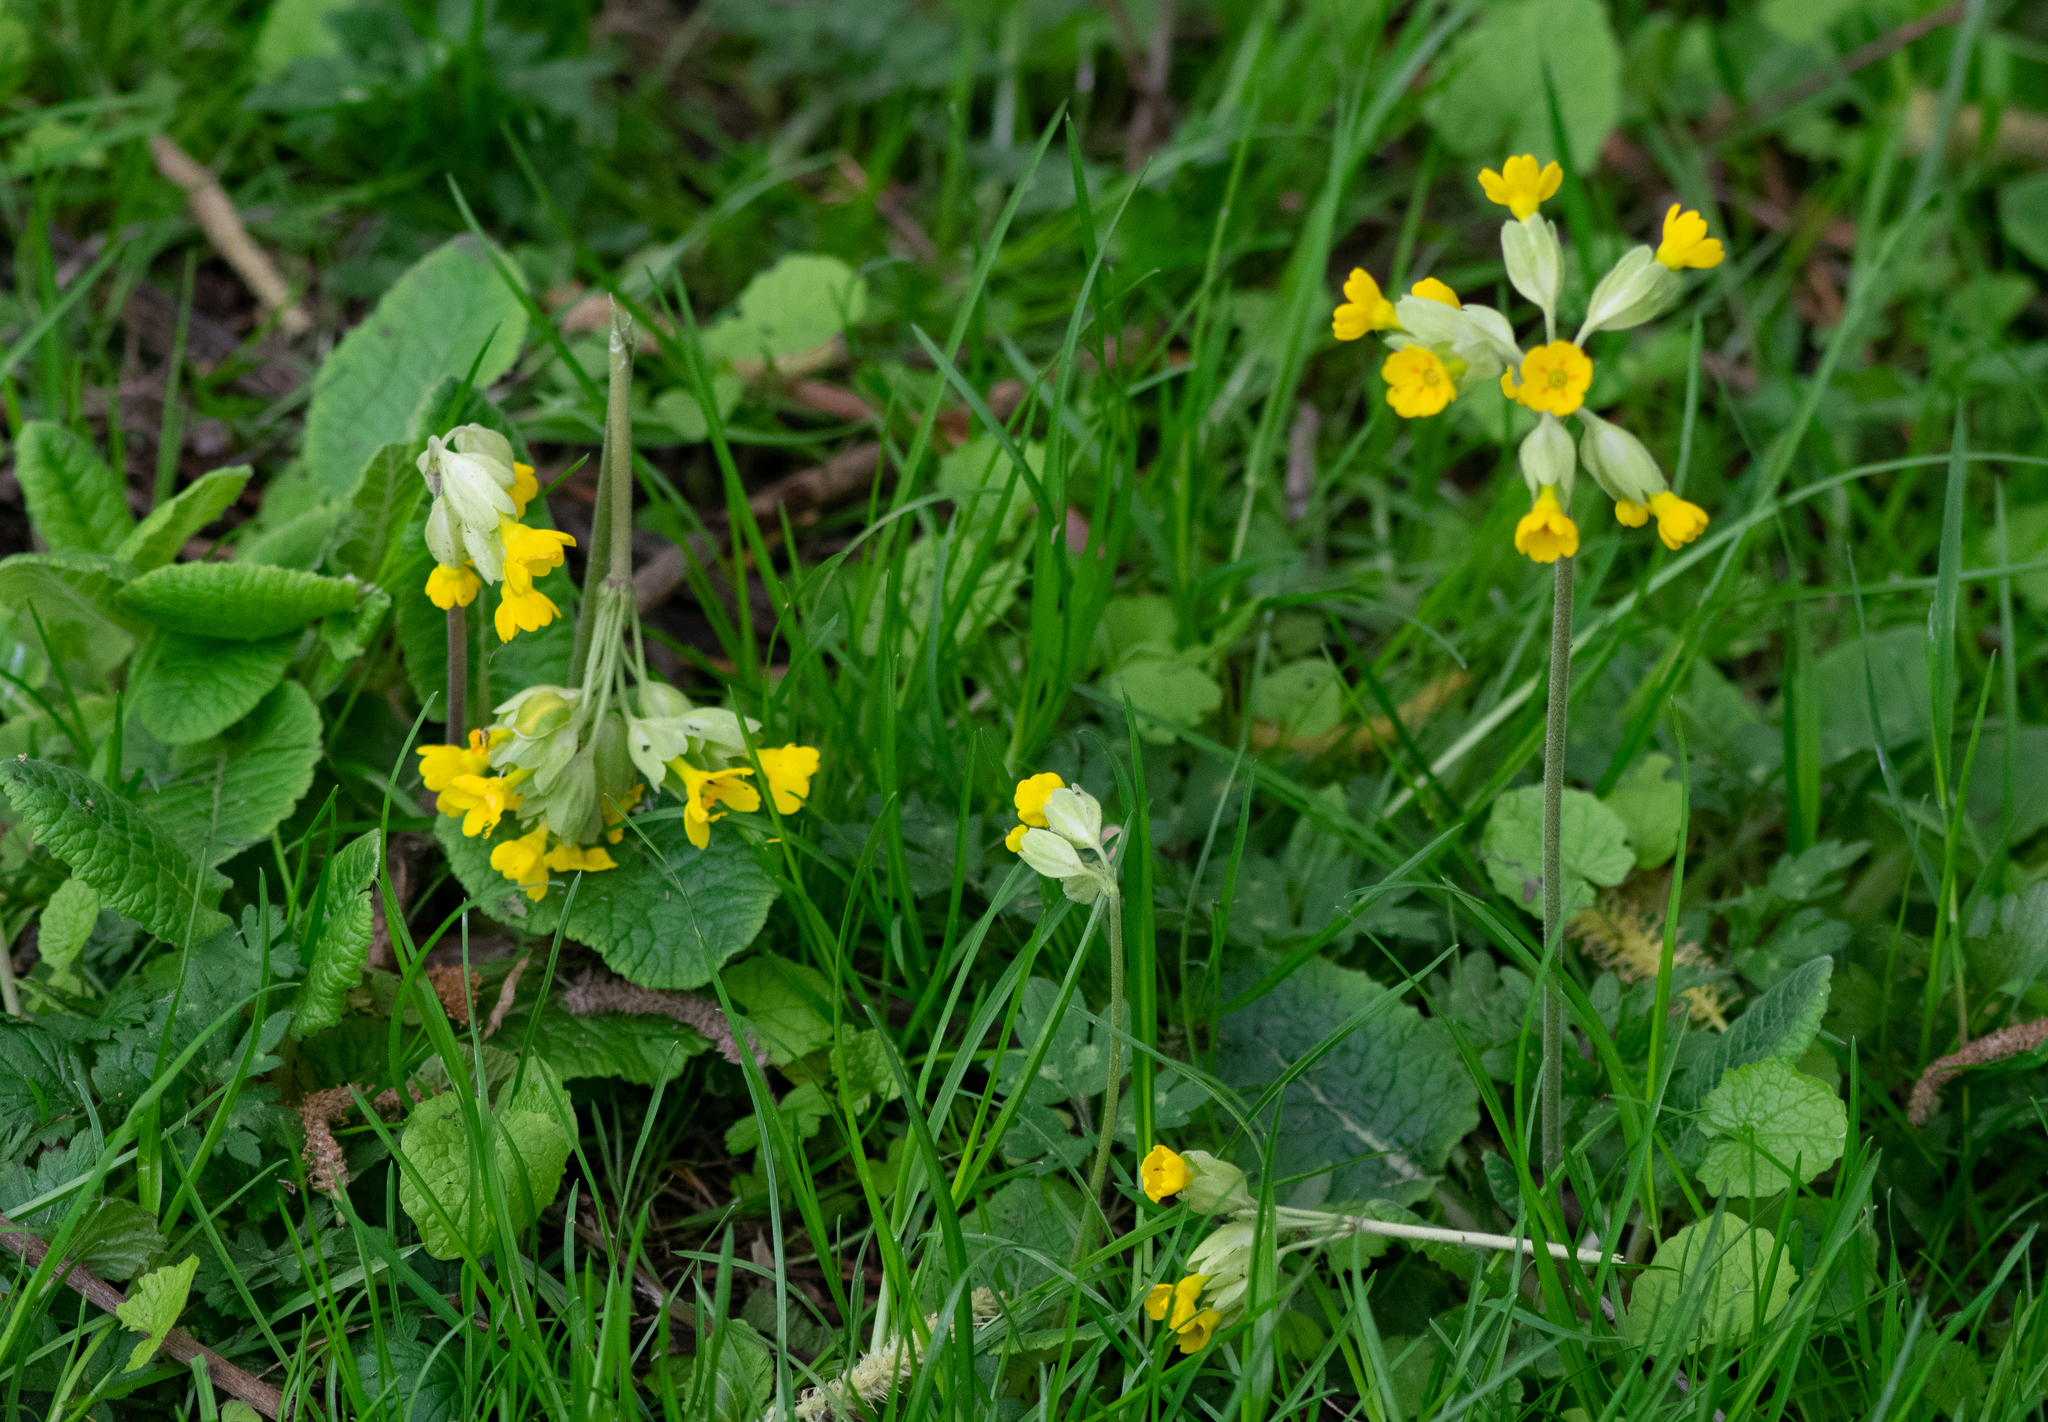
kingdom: Plantae
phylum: Tracheophyta
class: Magnoliopsida
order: Ericales
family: Primulaceae
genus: Primula
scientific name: Primula veris
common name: Cowslip
